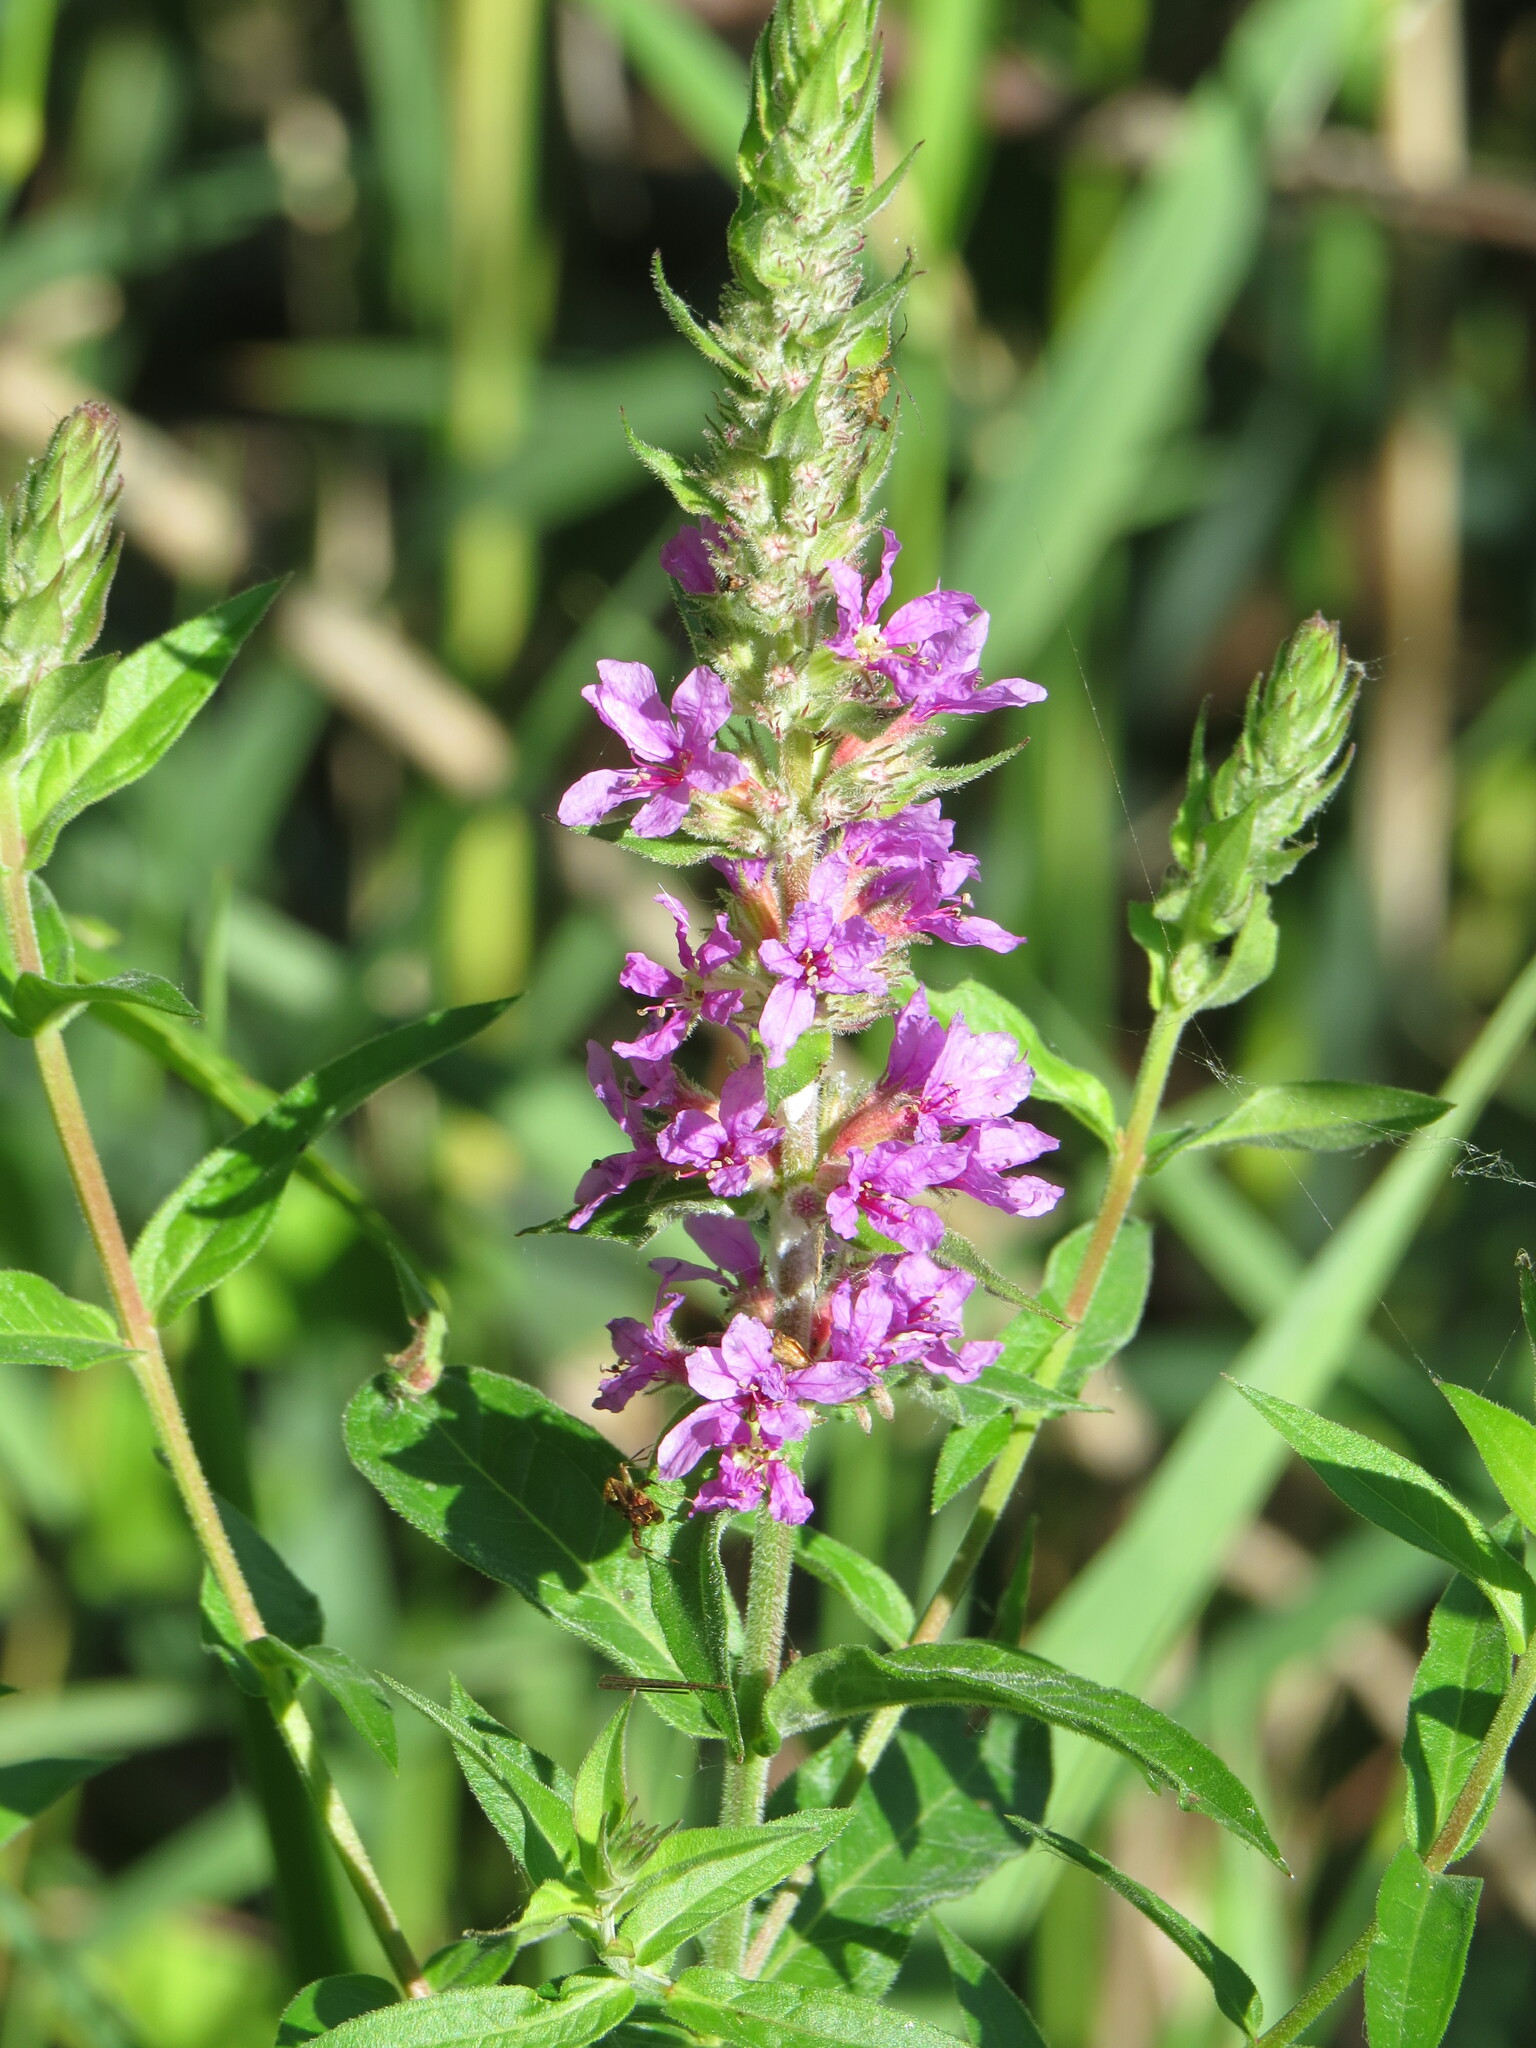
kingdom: Plantae
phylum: Tracheophyta
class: Magnoliopsida
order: Myrtales
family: Lythraceae
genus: Lythrum
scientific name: Lythrum salicaria
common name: Purple loosestrife
